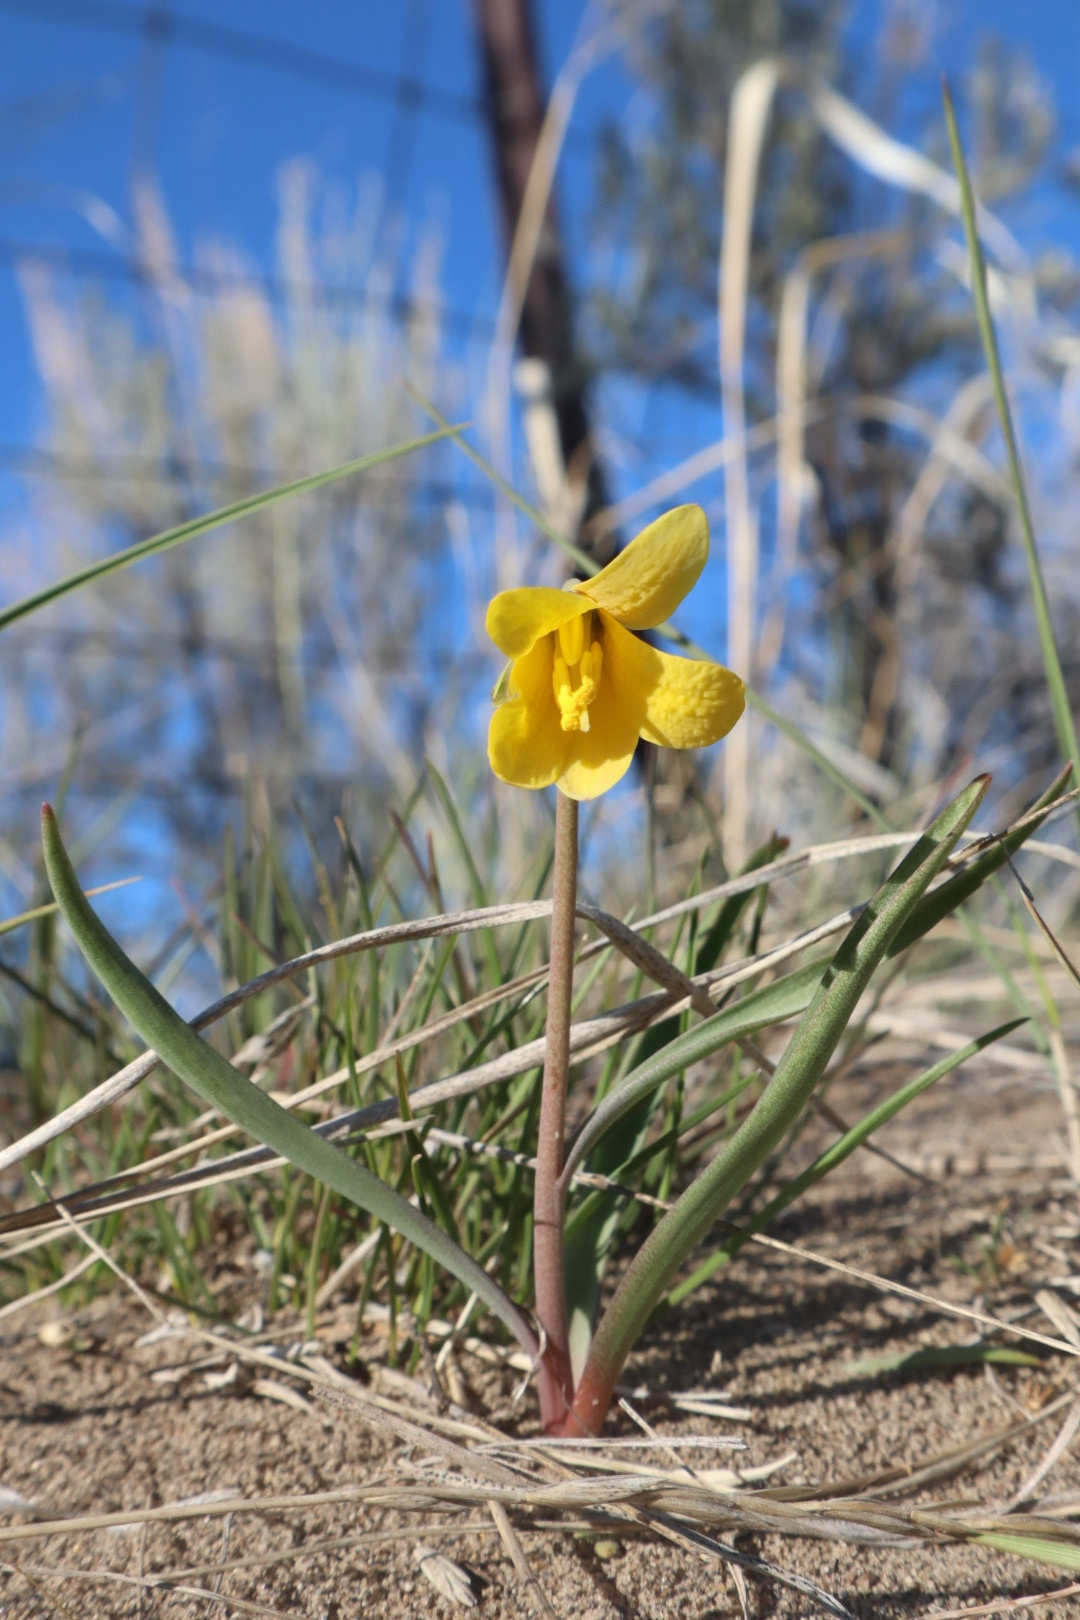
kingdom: Plantae
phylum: Tracheophyta
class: Liliopsida
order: Liliales
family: Liliaceae
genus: Fritillaria
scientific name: Fritillaria pudica
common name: Yellow fritillary
